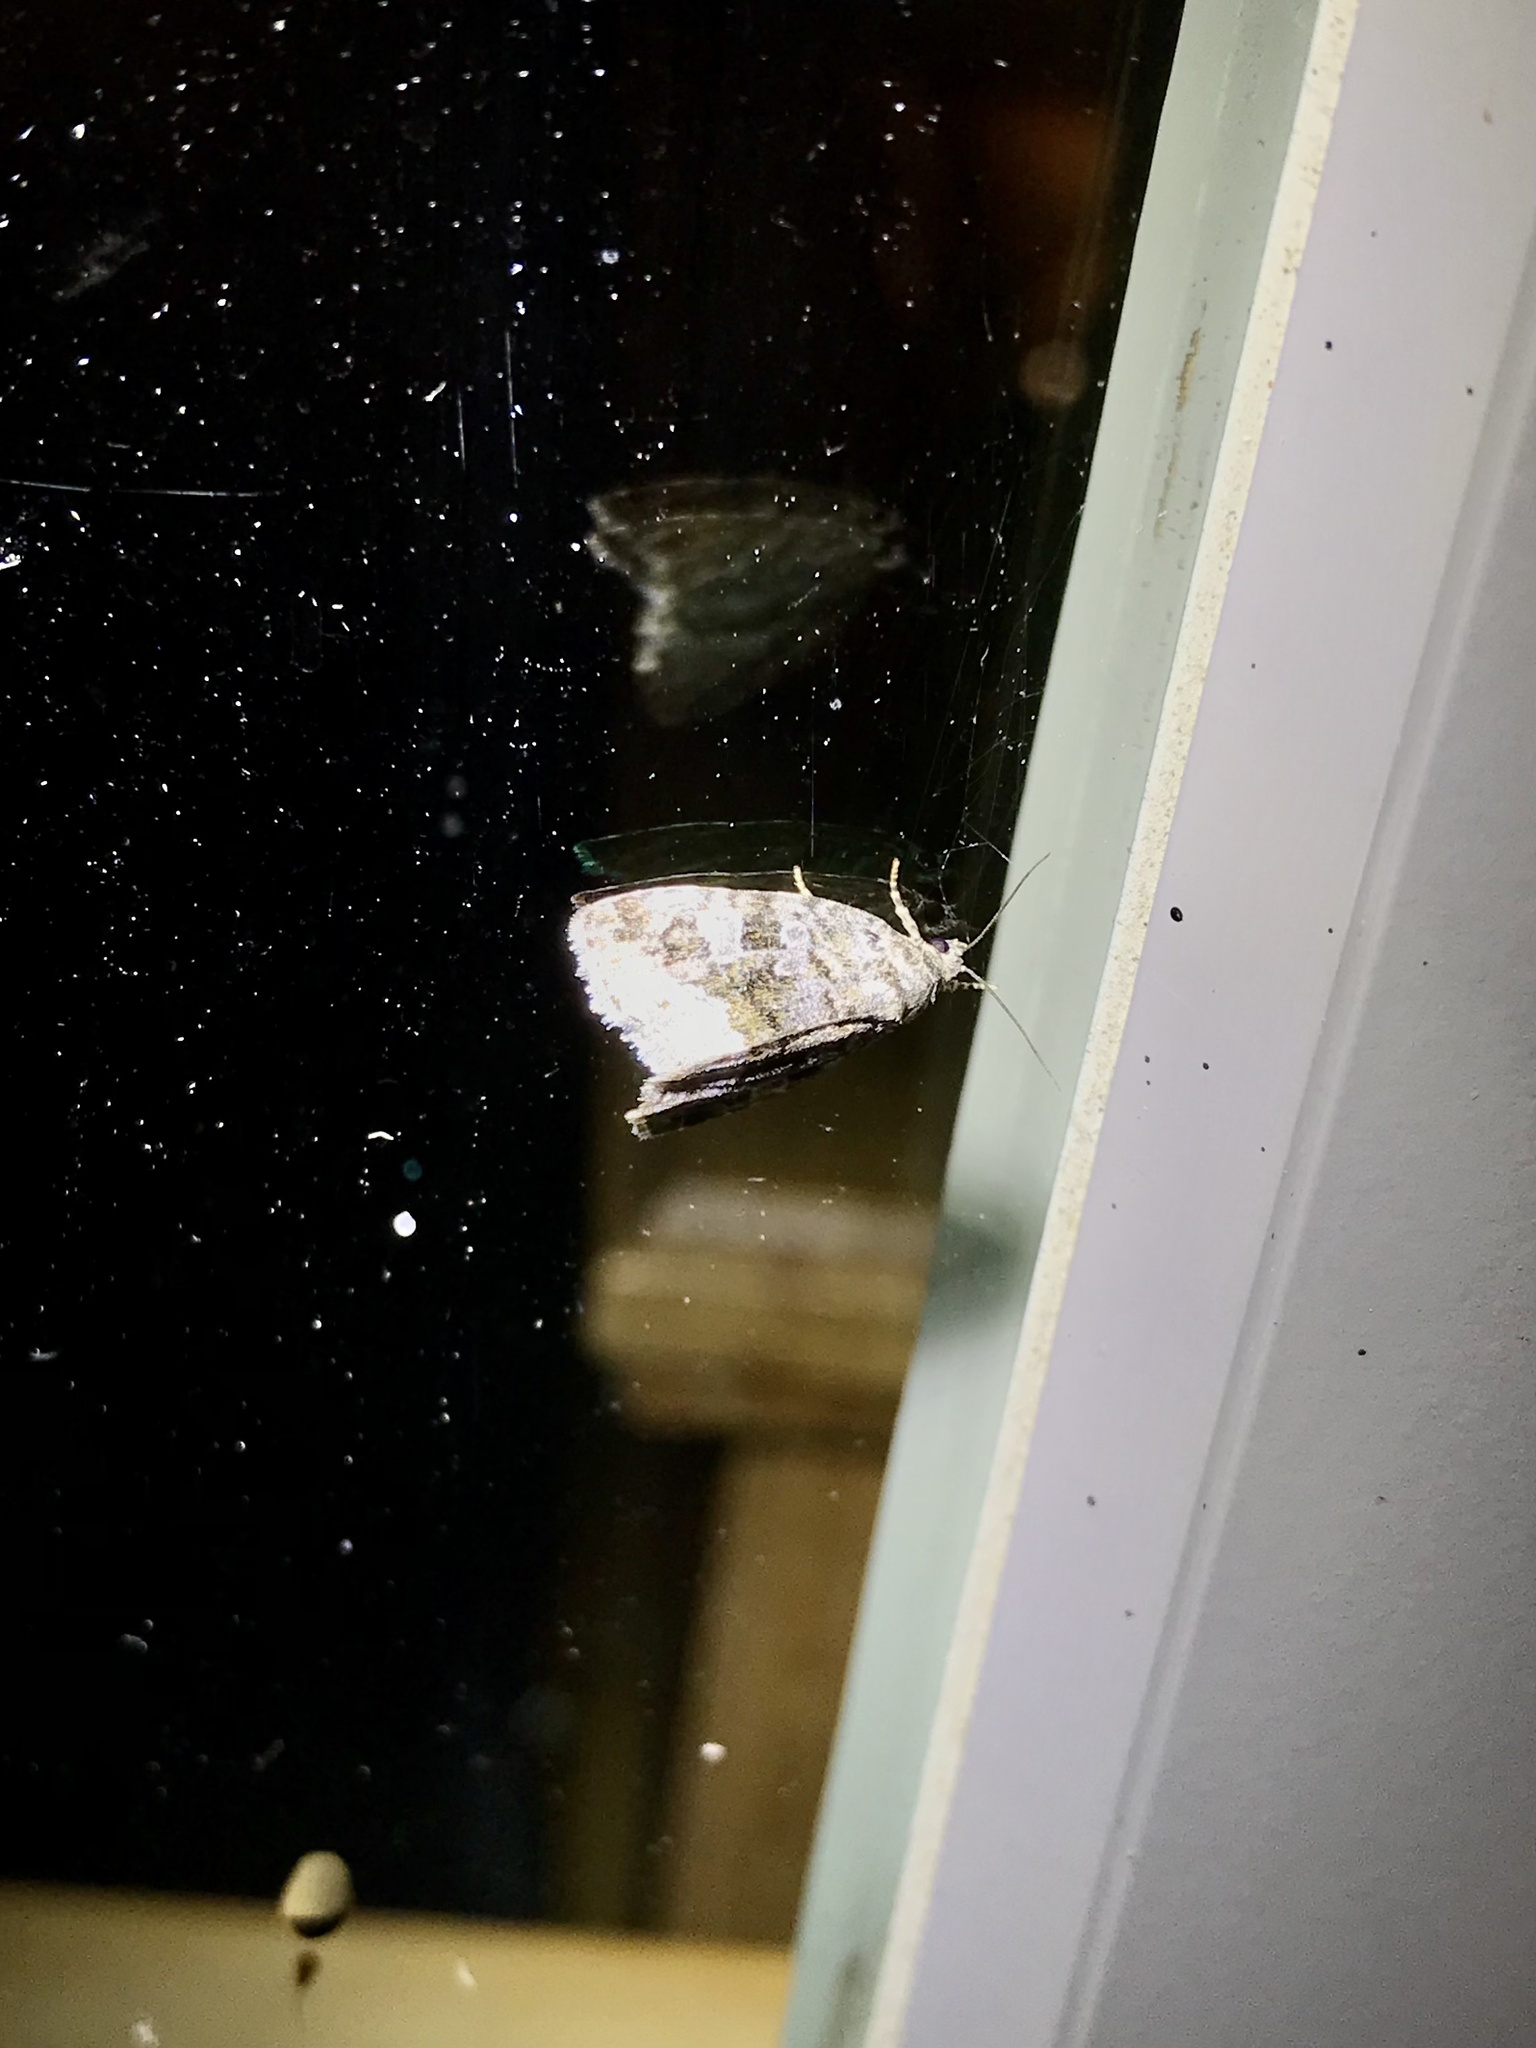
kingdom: Animalia
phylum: Arthropoda
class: Insecta
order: Lepidoptera
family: Noctuidae
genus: Protodeltote
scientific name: Protodeltote muscosula
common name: Large mossy glyph
